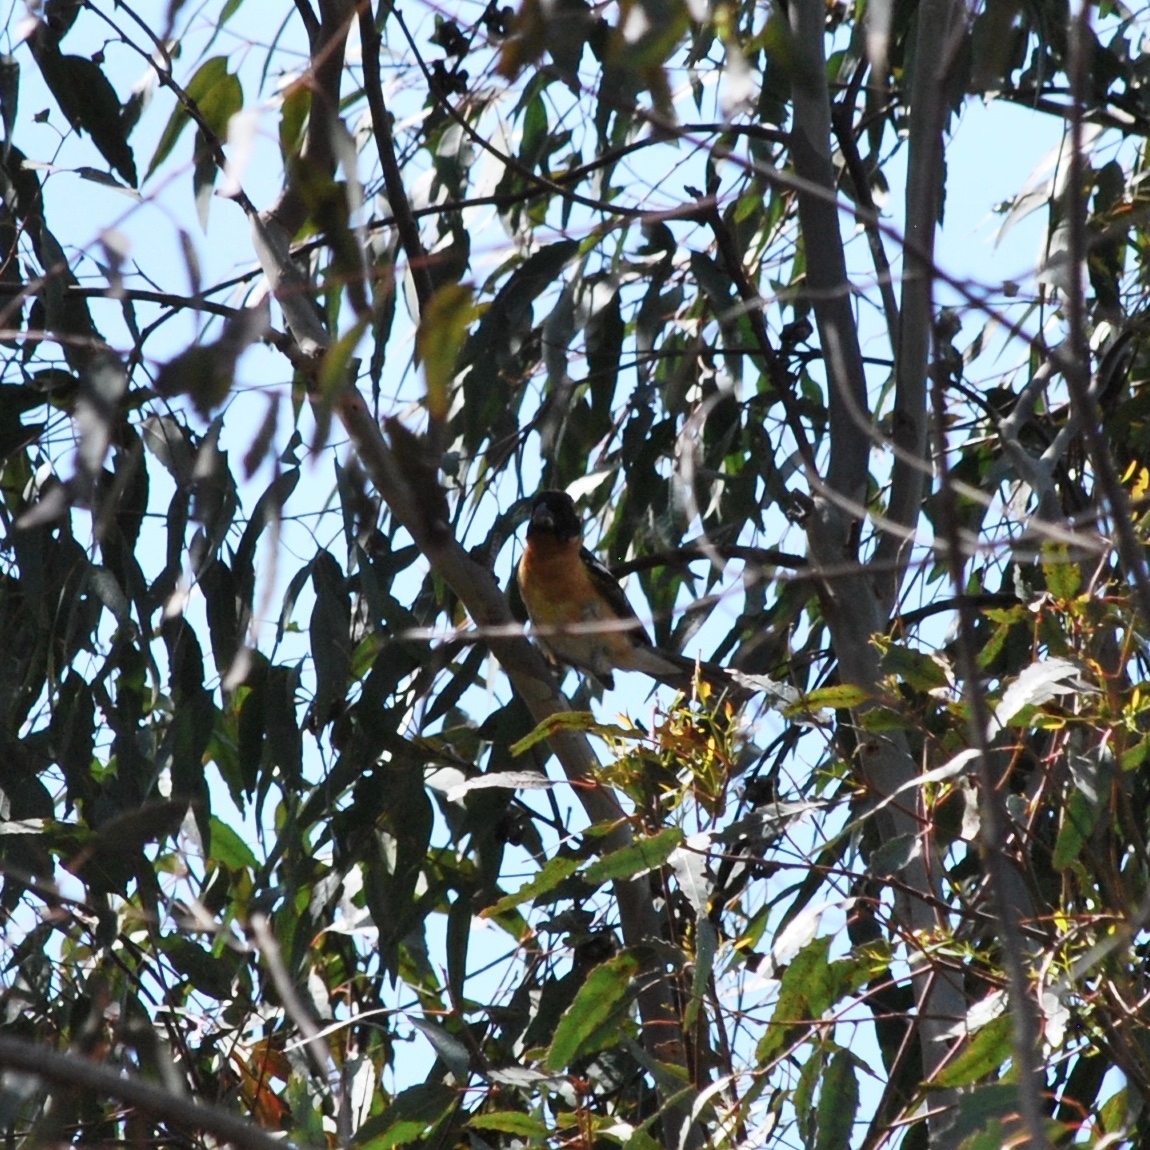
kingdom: Animalia
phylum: Chordata
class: Aves
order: Passeriformes
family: Cardinalidae
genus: Pheucticus
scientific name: Pheucticus melanocephalus
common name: Black-headed grosbeak
